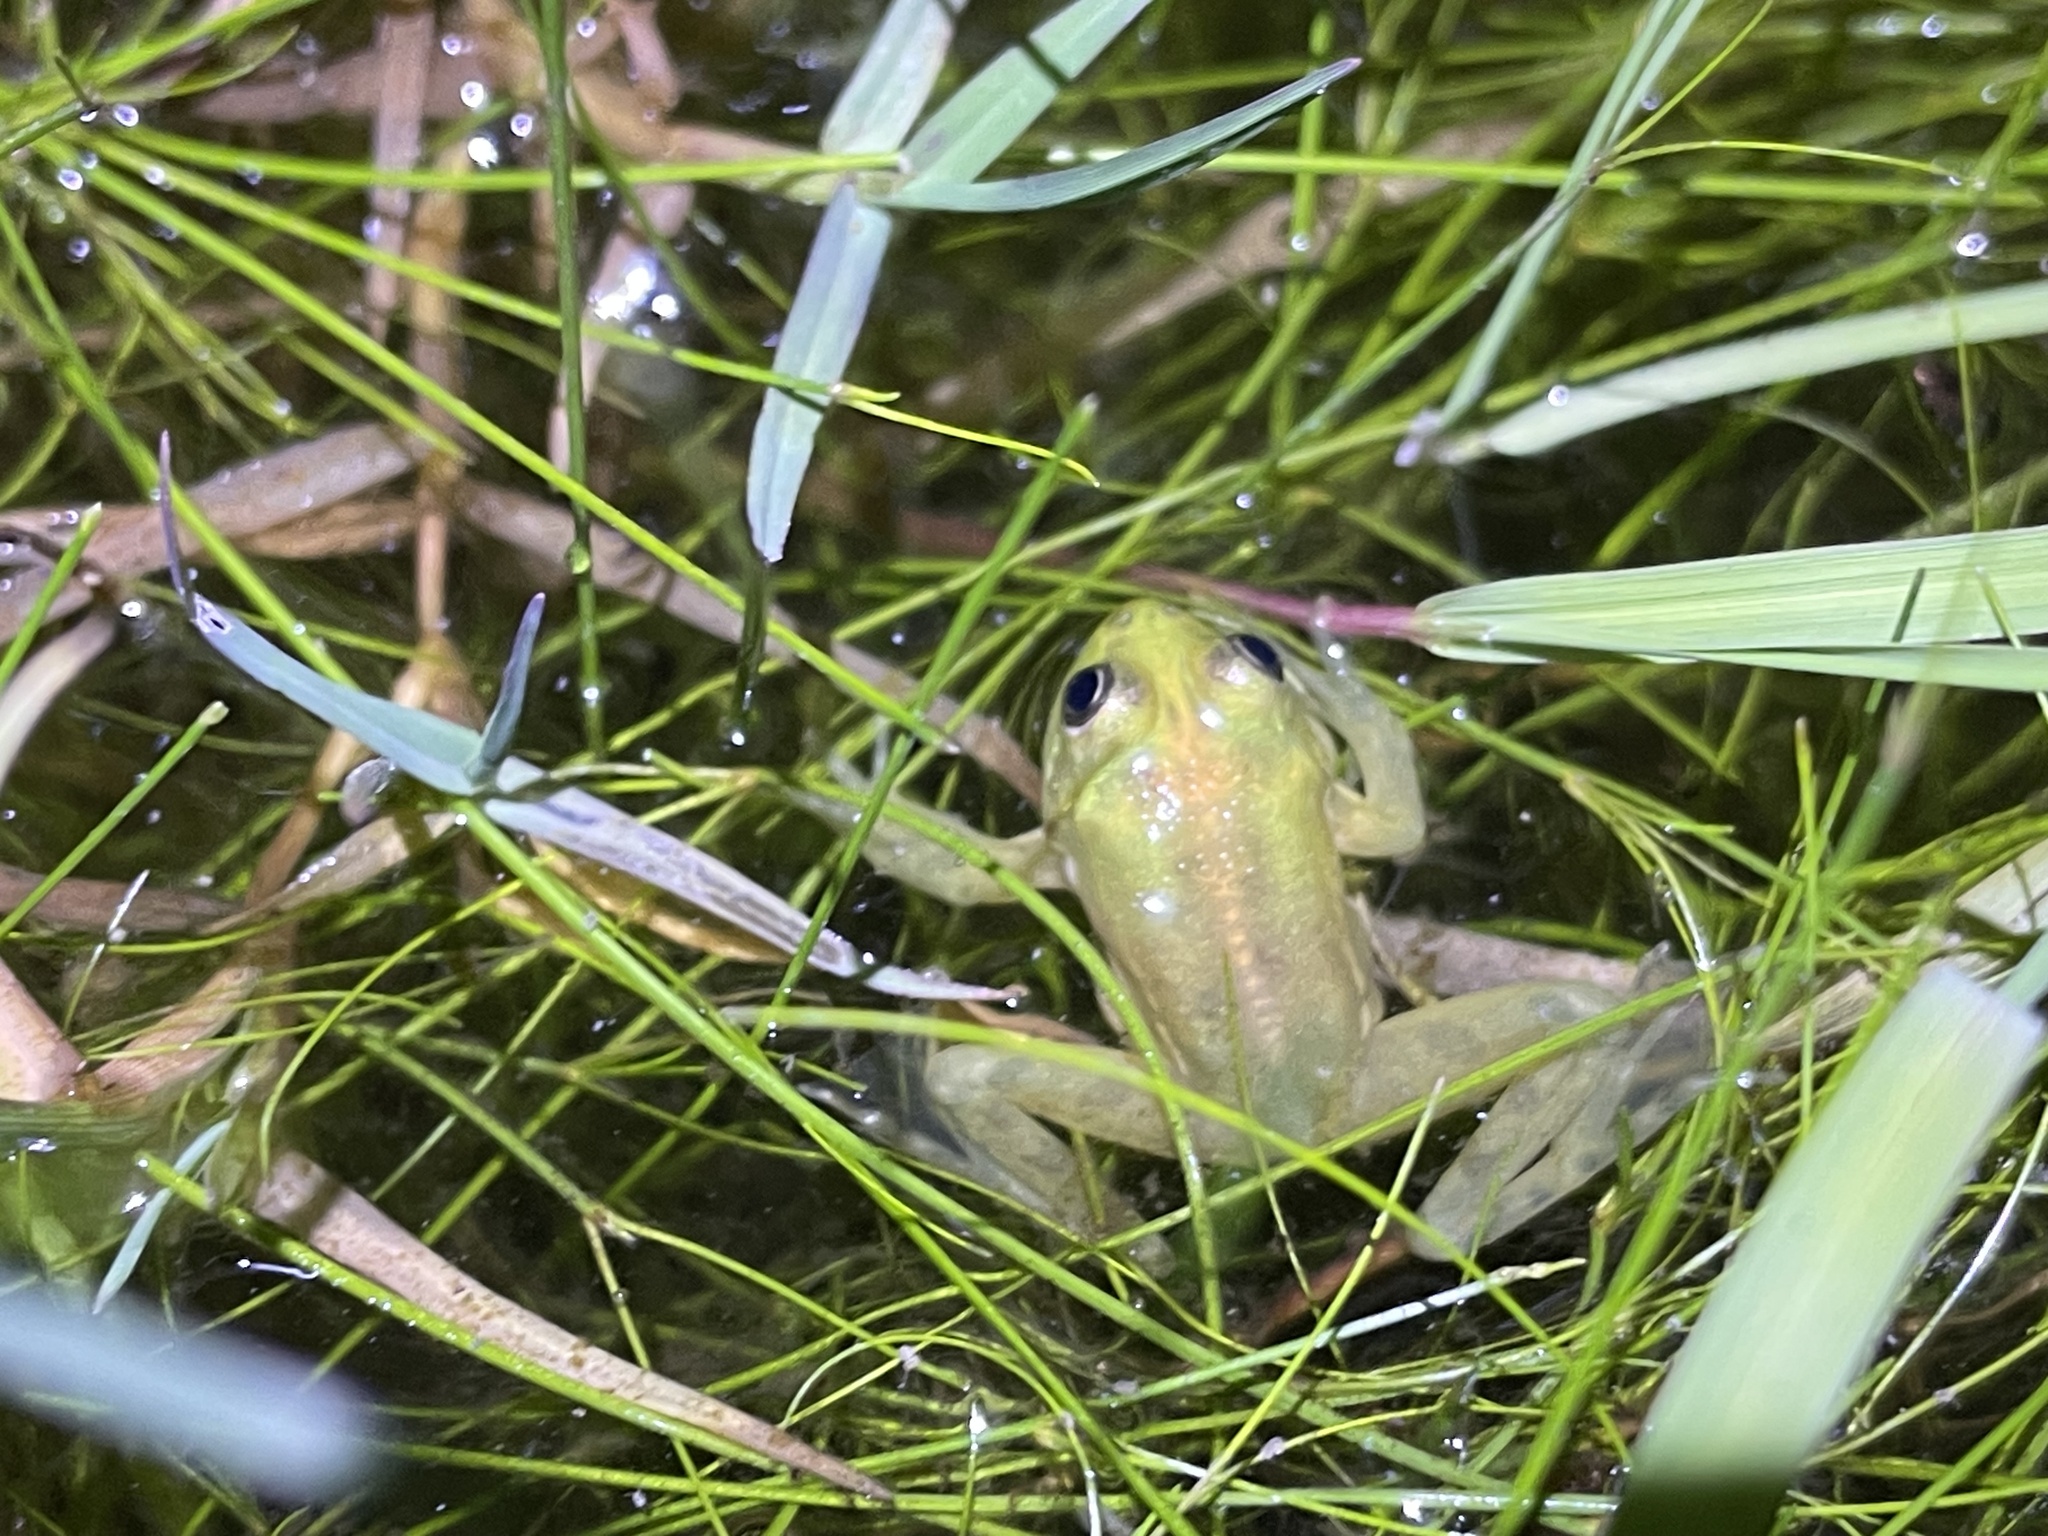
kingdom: Animalia
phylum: Chordata
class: Amphibia
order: Anura
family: Hylidae
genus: Pseudis
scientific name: Pseudis minuta
